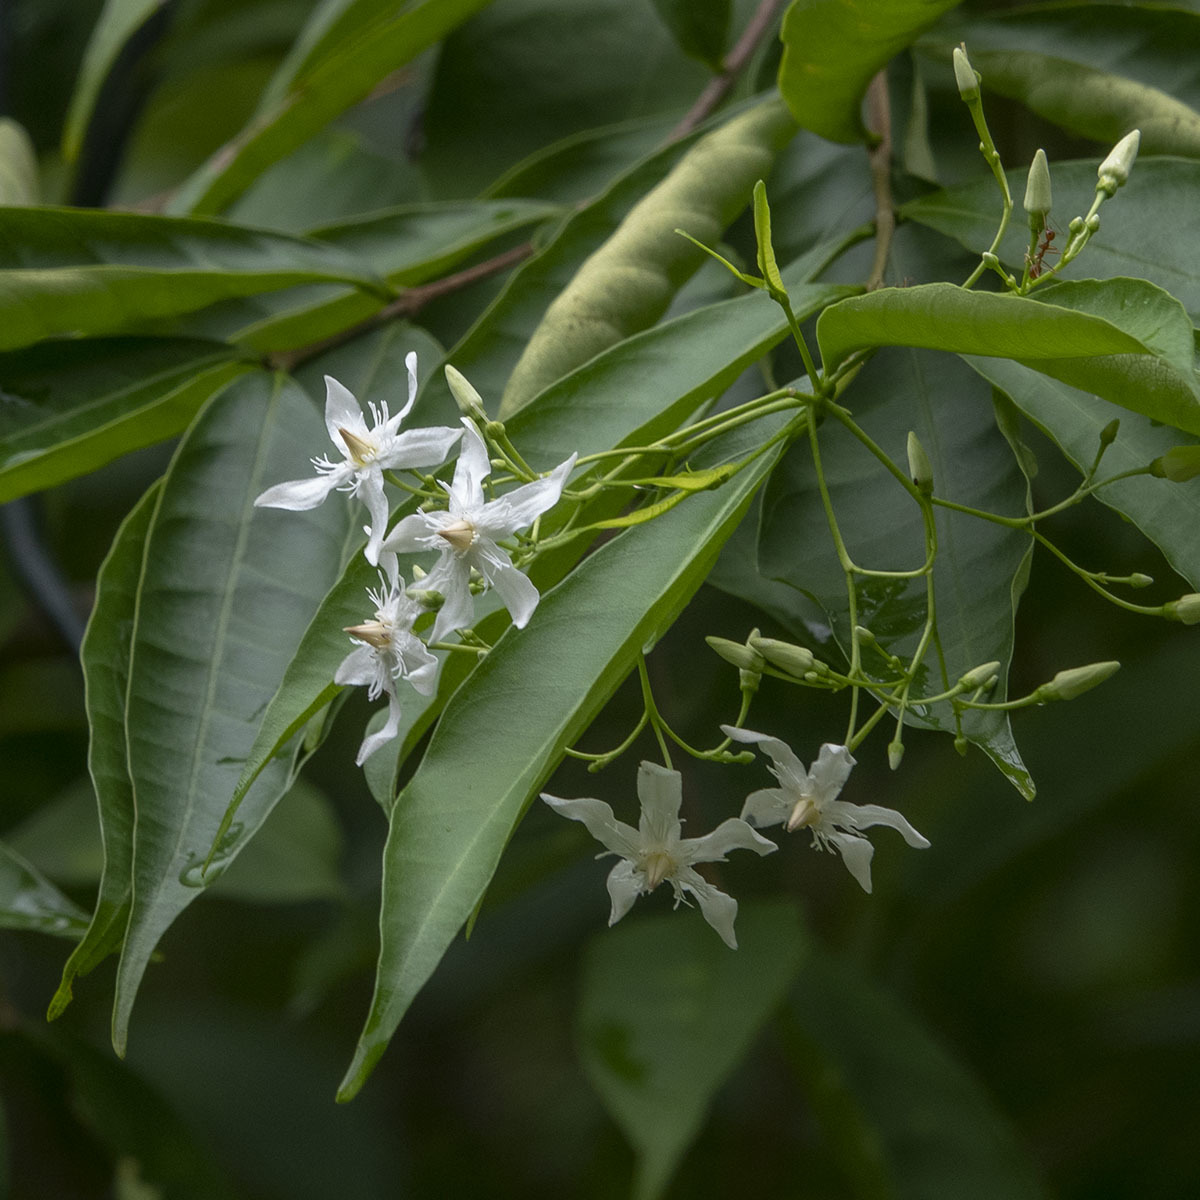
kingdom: Plantae
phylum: Tracheophyta
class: Magnoliopsida
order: Gentianales
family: Apocynaceae
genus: Wrightia
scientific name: Wrightia tinctoria
